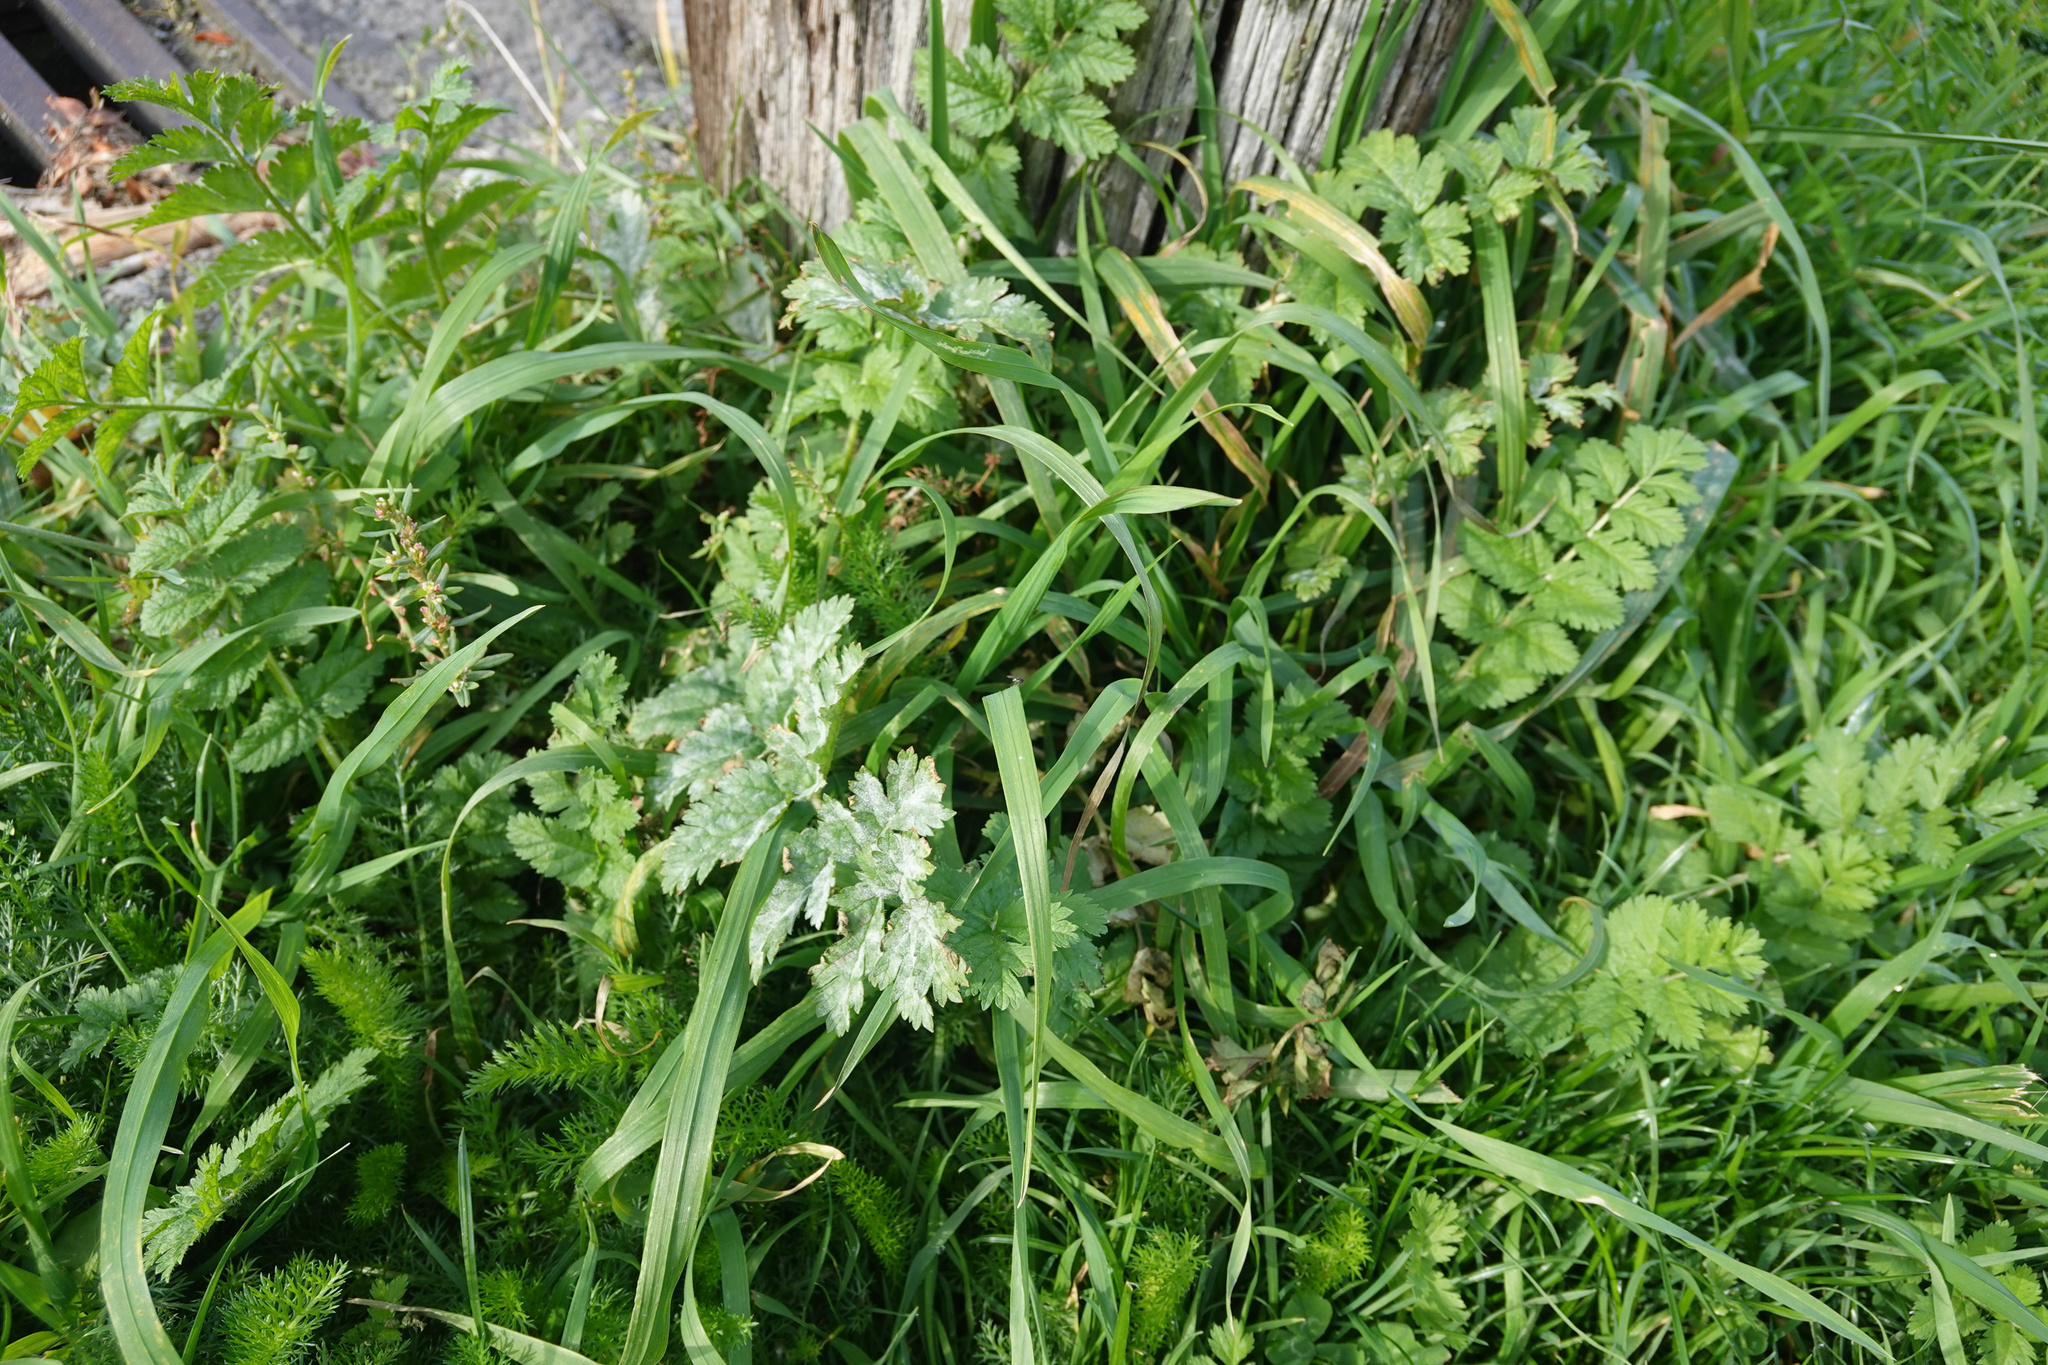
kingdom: Plantae
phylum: Tracheophyta
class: Magnoliopsida
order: Geraniales
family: Geraniaceae
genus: Erodium
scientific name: Erodium moschatum
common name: Musk stork's-bill
